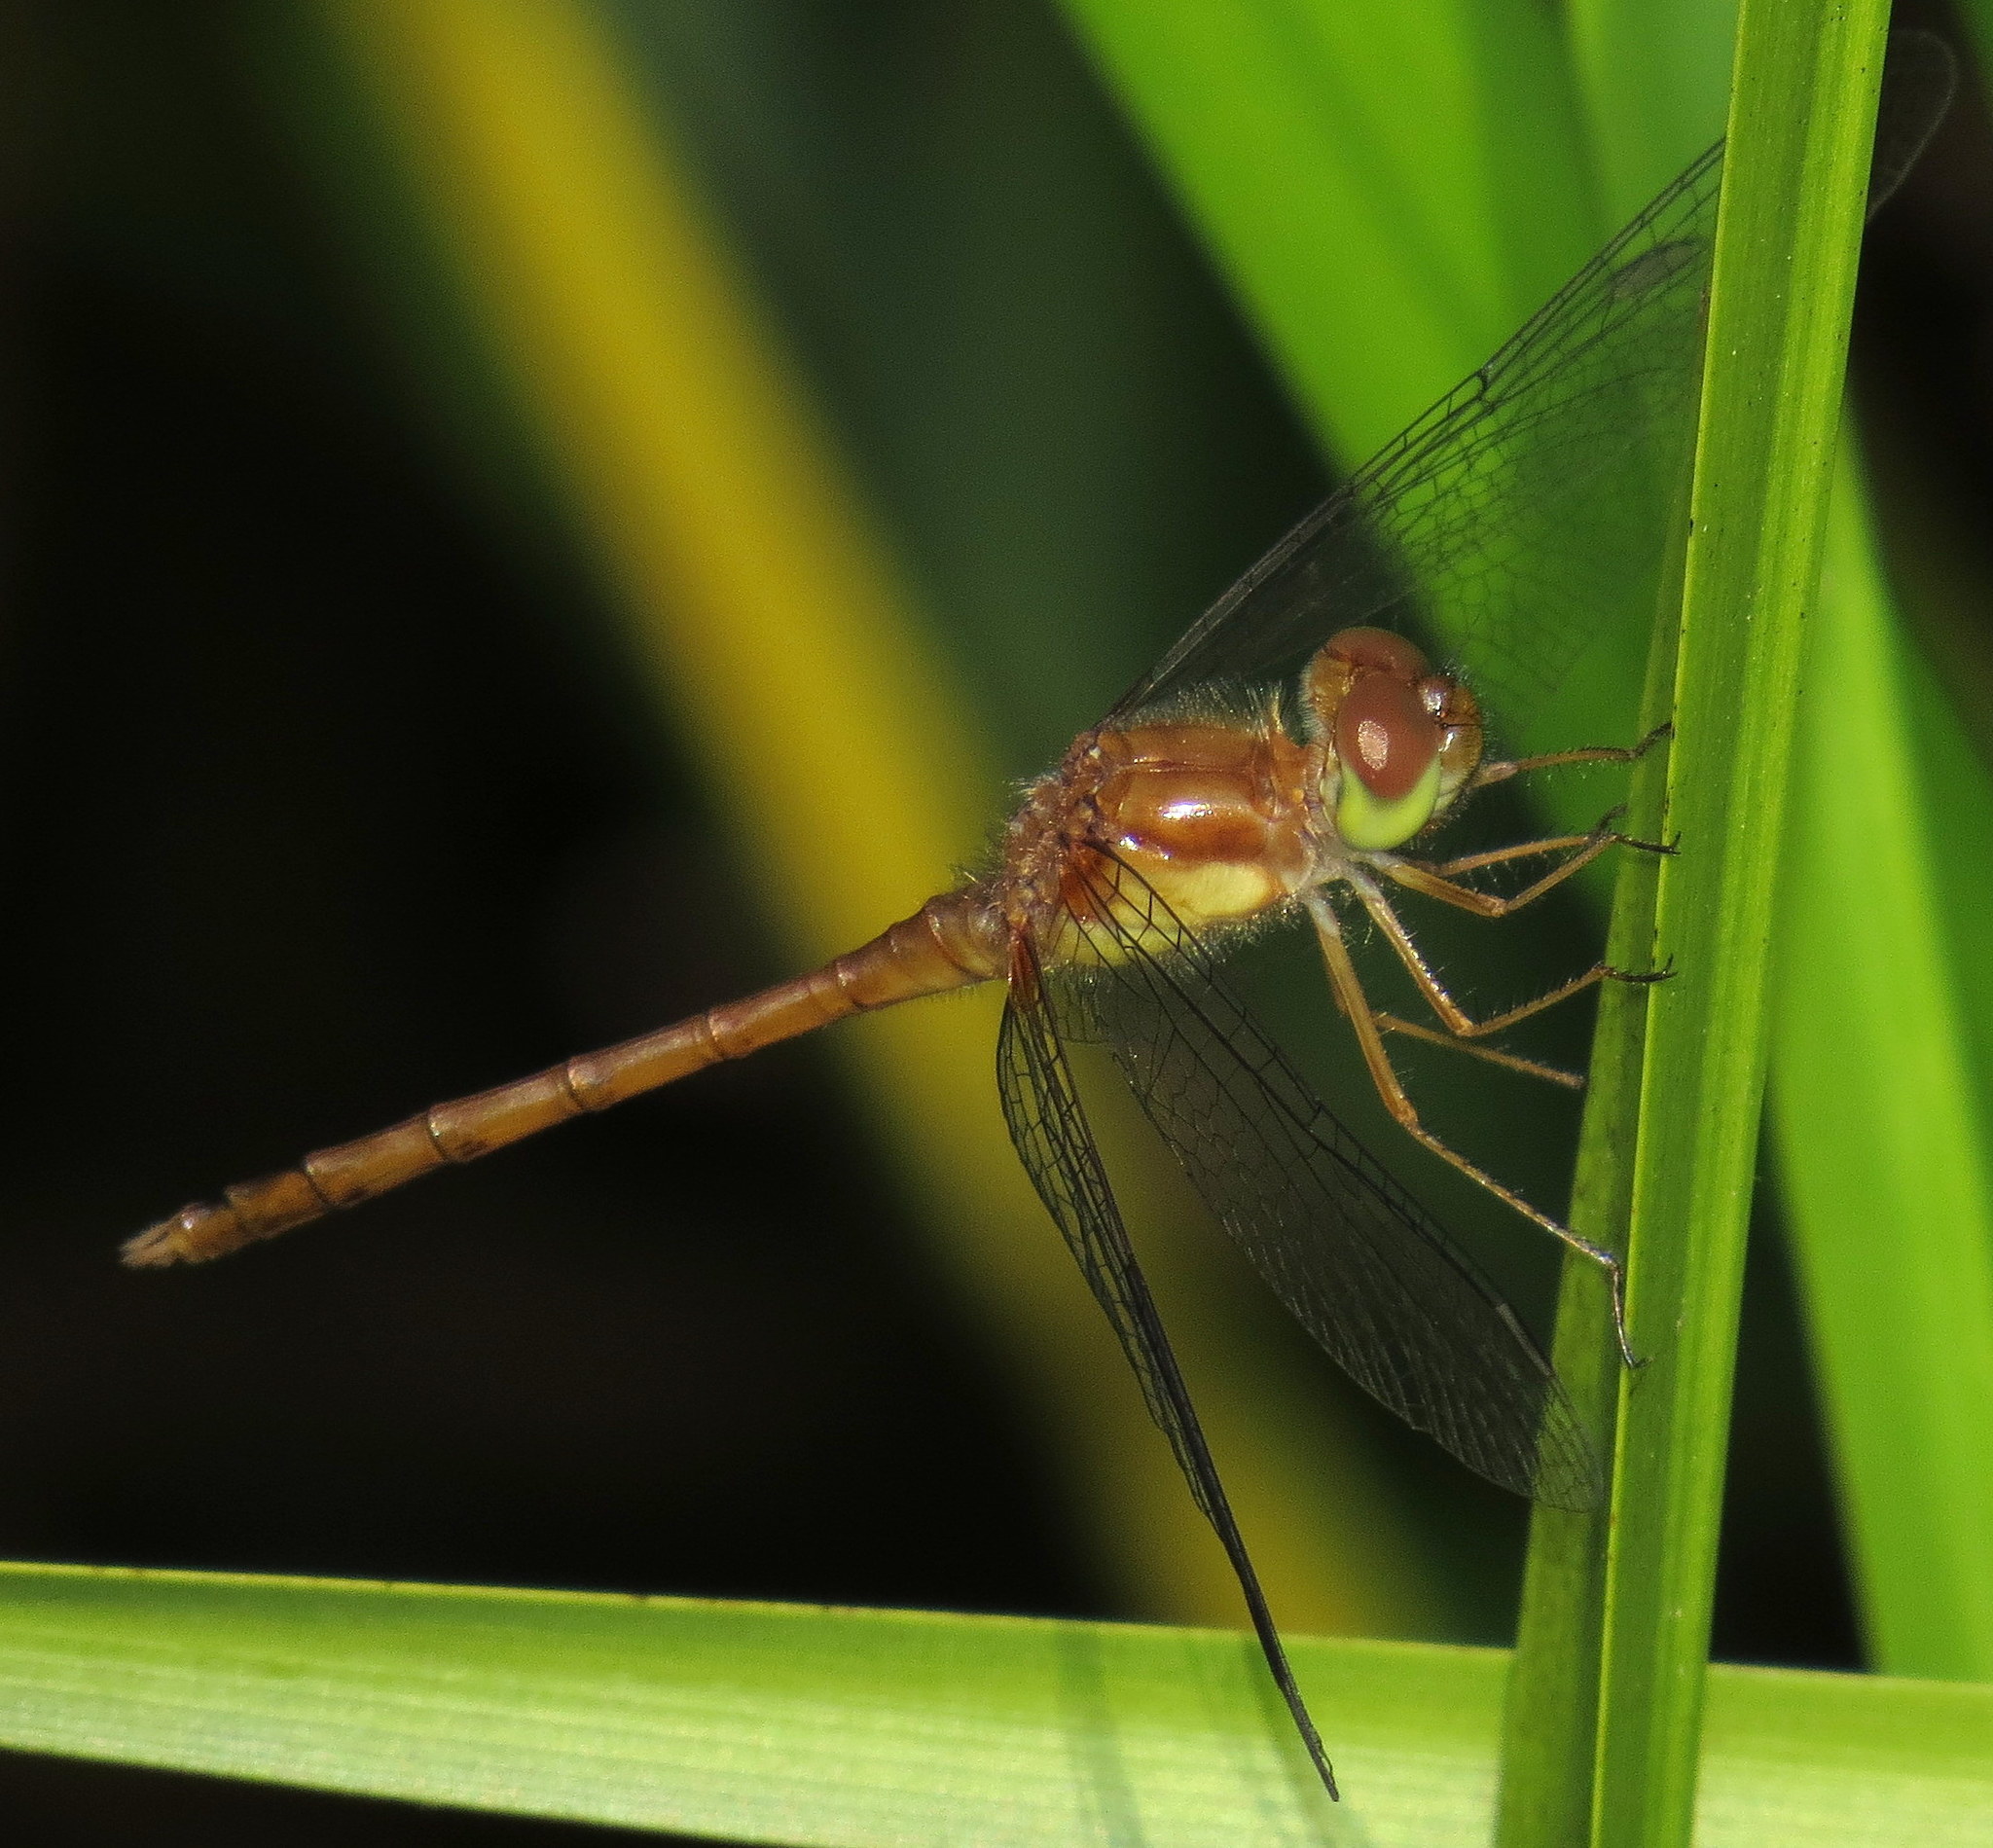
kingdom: Animalia
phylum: Arthropoda
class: Insecta
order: Odonata
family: Libellulidae
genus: Sympetrum
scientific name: Sympetrum vicinum
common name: Autumn meadowhawk
